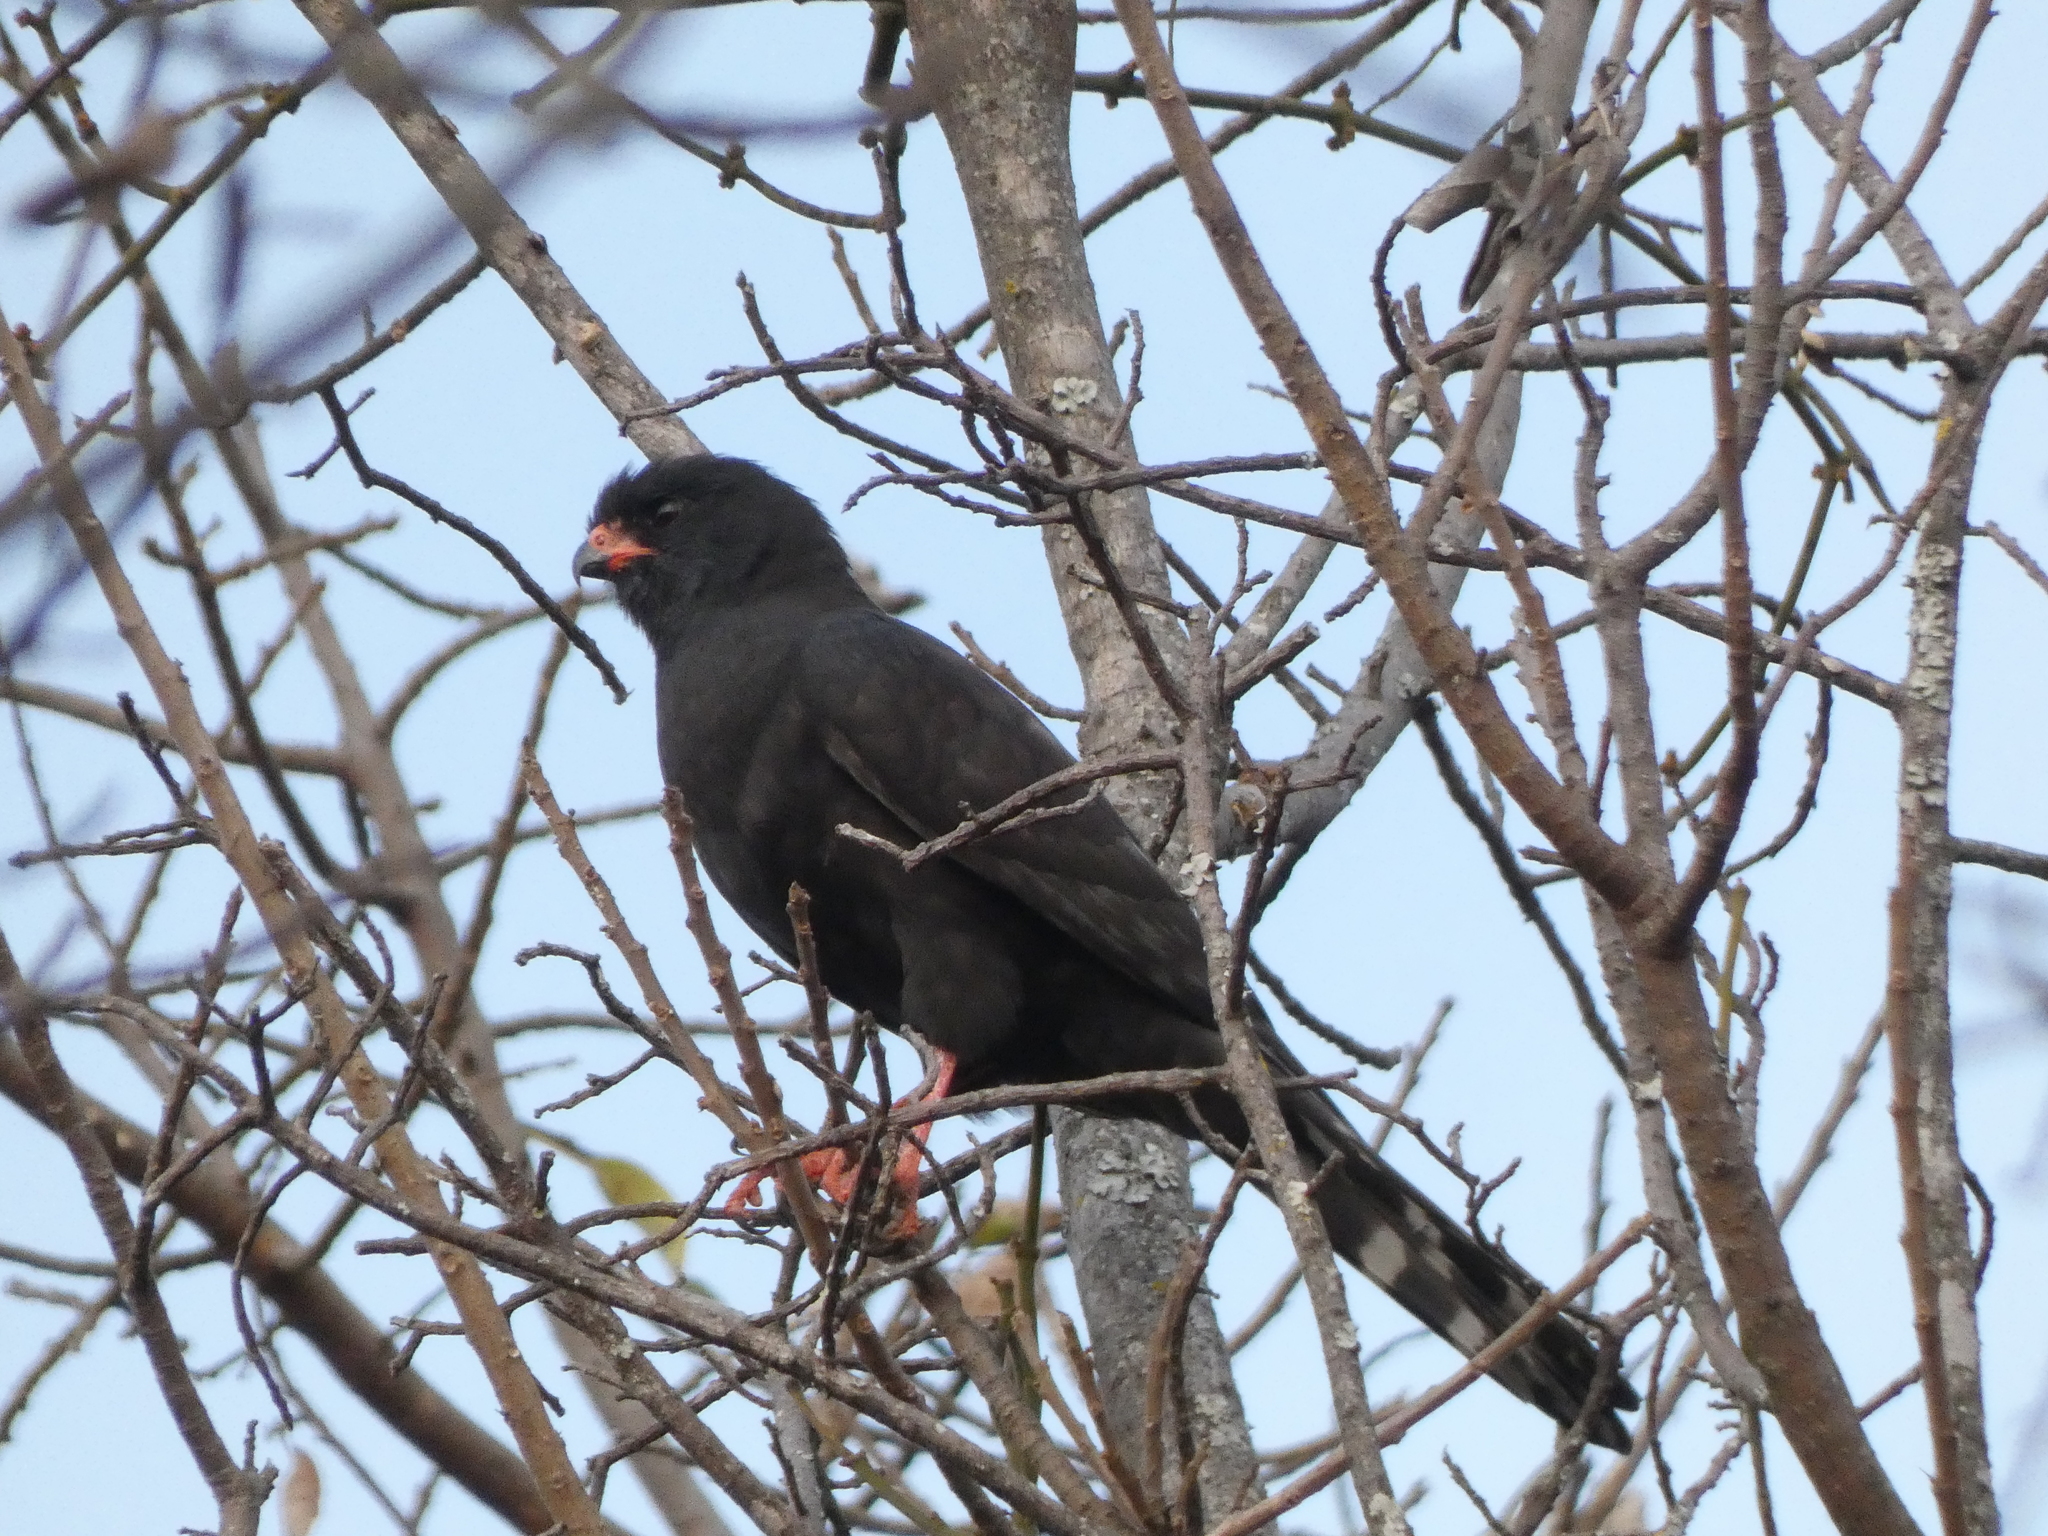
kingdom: Animalia
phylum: Chordata
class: Aves
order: Accipitriformes
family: Accipitridae
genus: Micronisus
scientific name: Micronisus gabar
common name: Gabar goshawk
